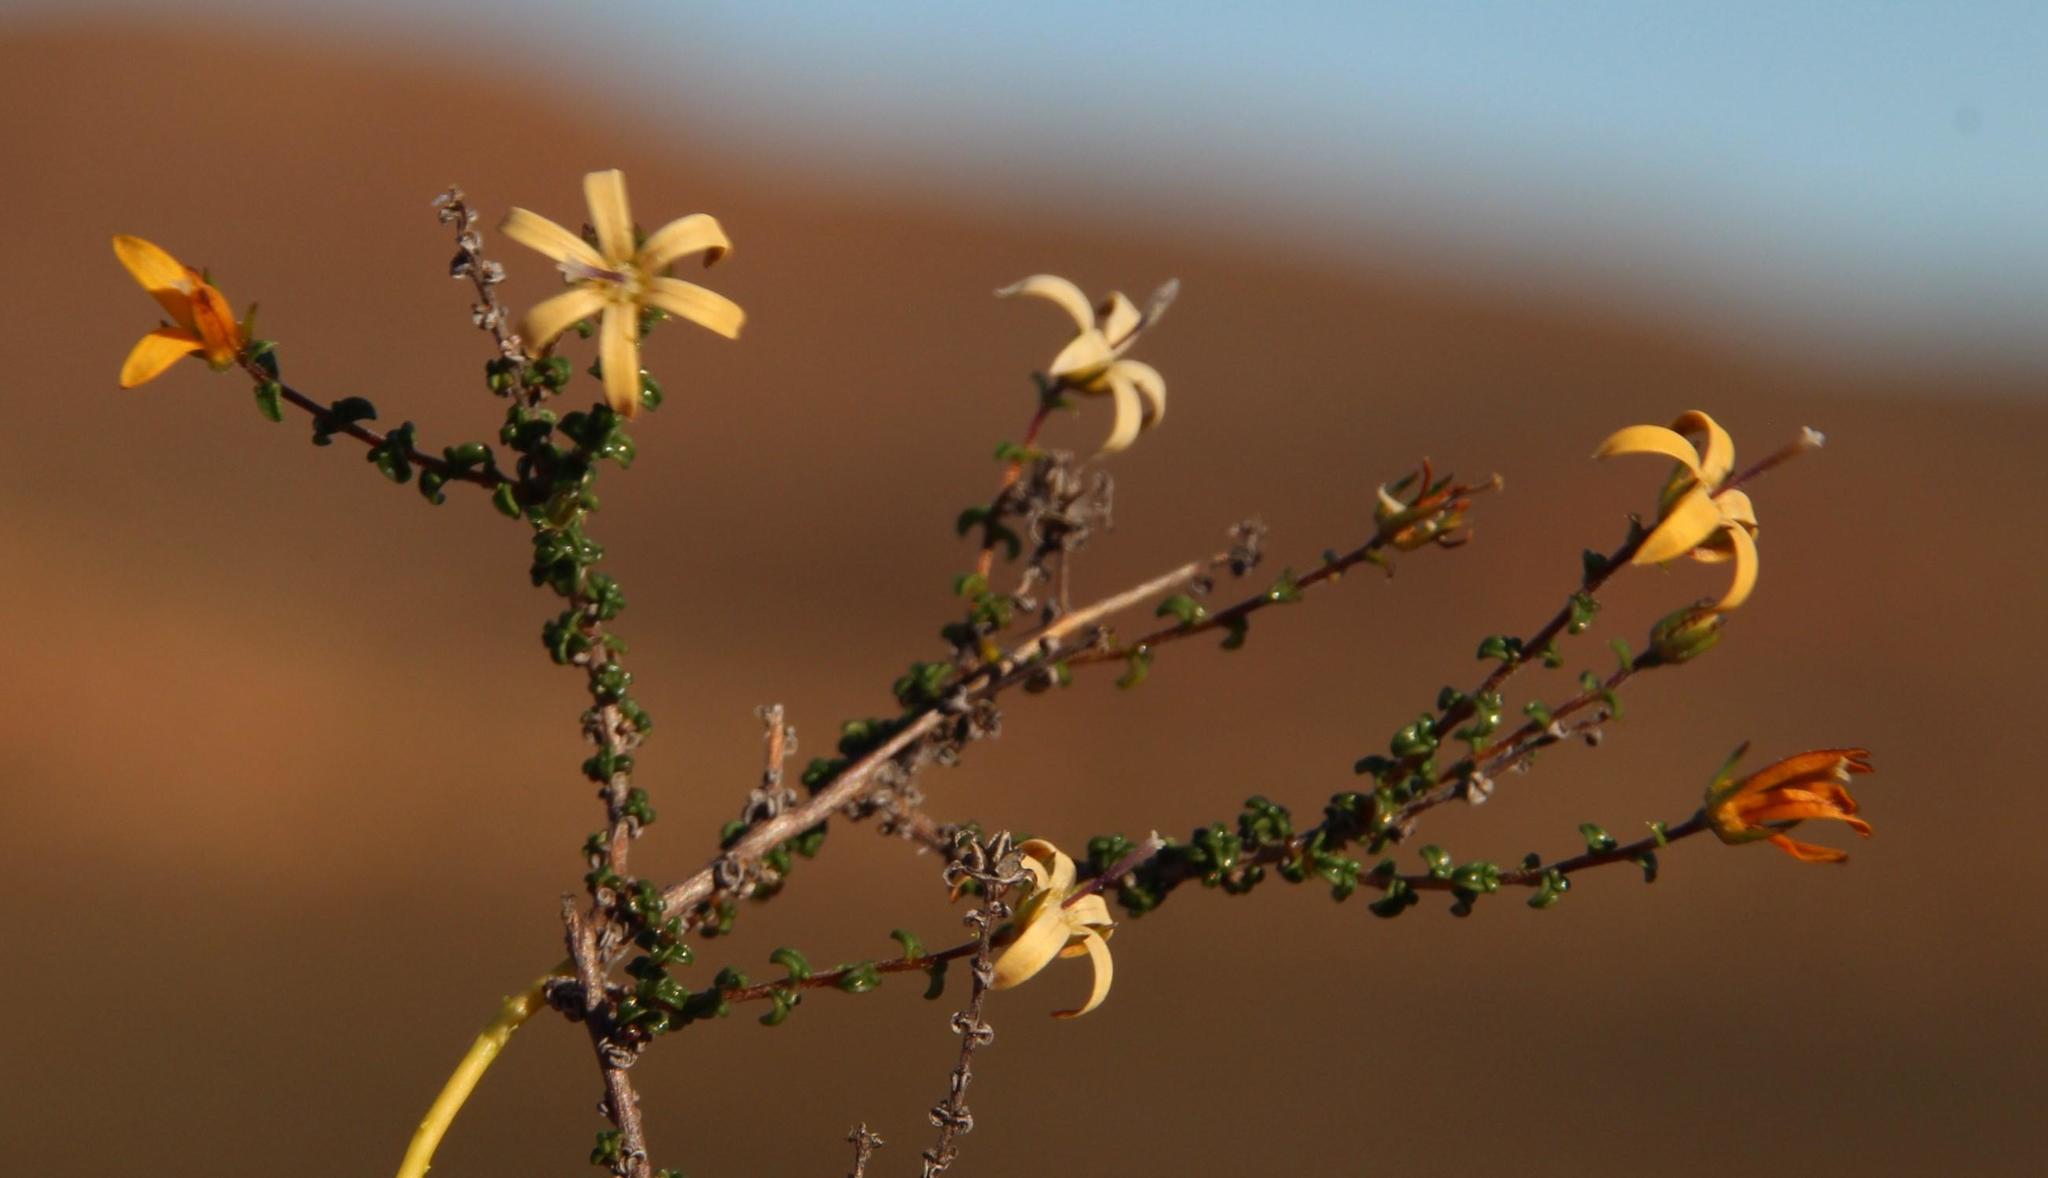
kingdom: Plantae
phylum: Tracheophyta
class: Magnoliopsida
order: Asterales
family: Campanulaceae
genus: Wahlenbergia
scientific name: Wahlenbergia nodosa
